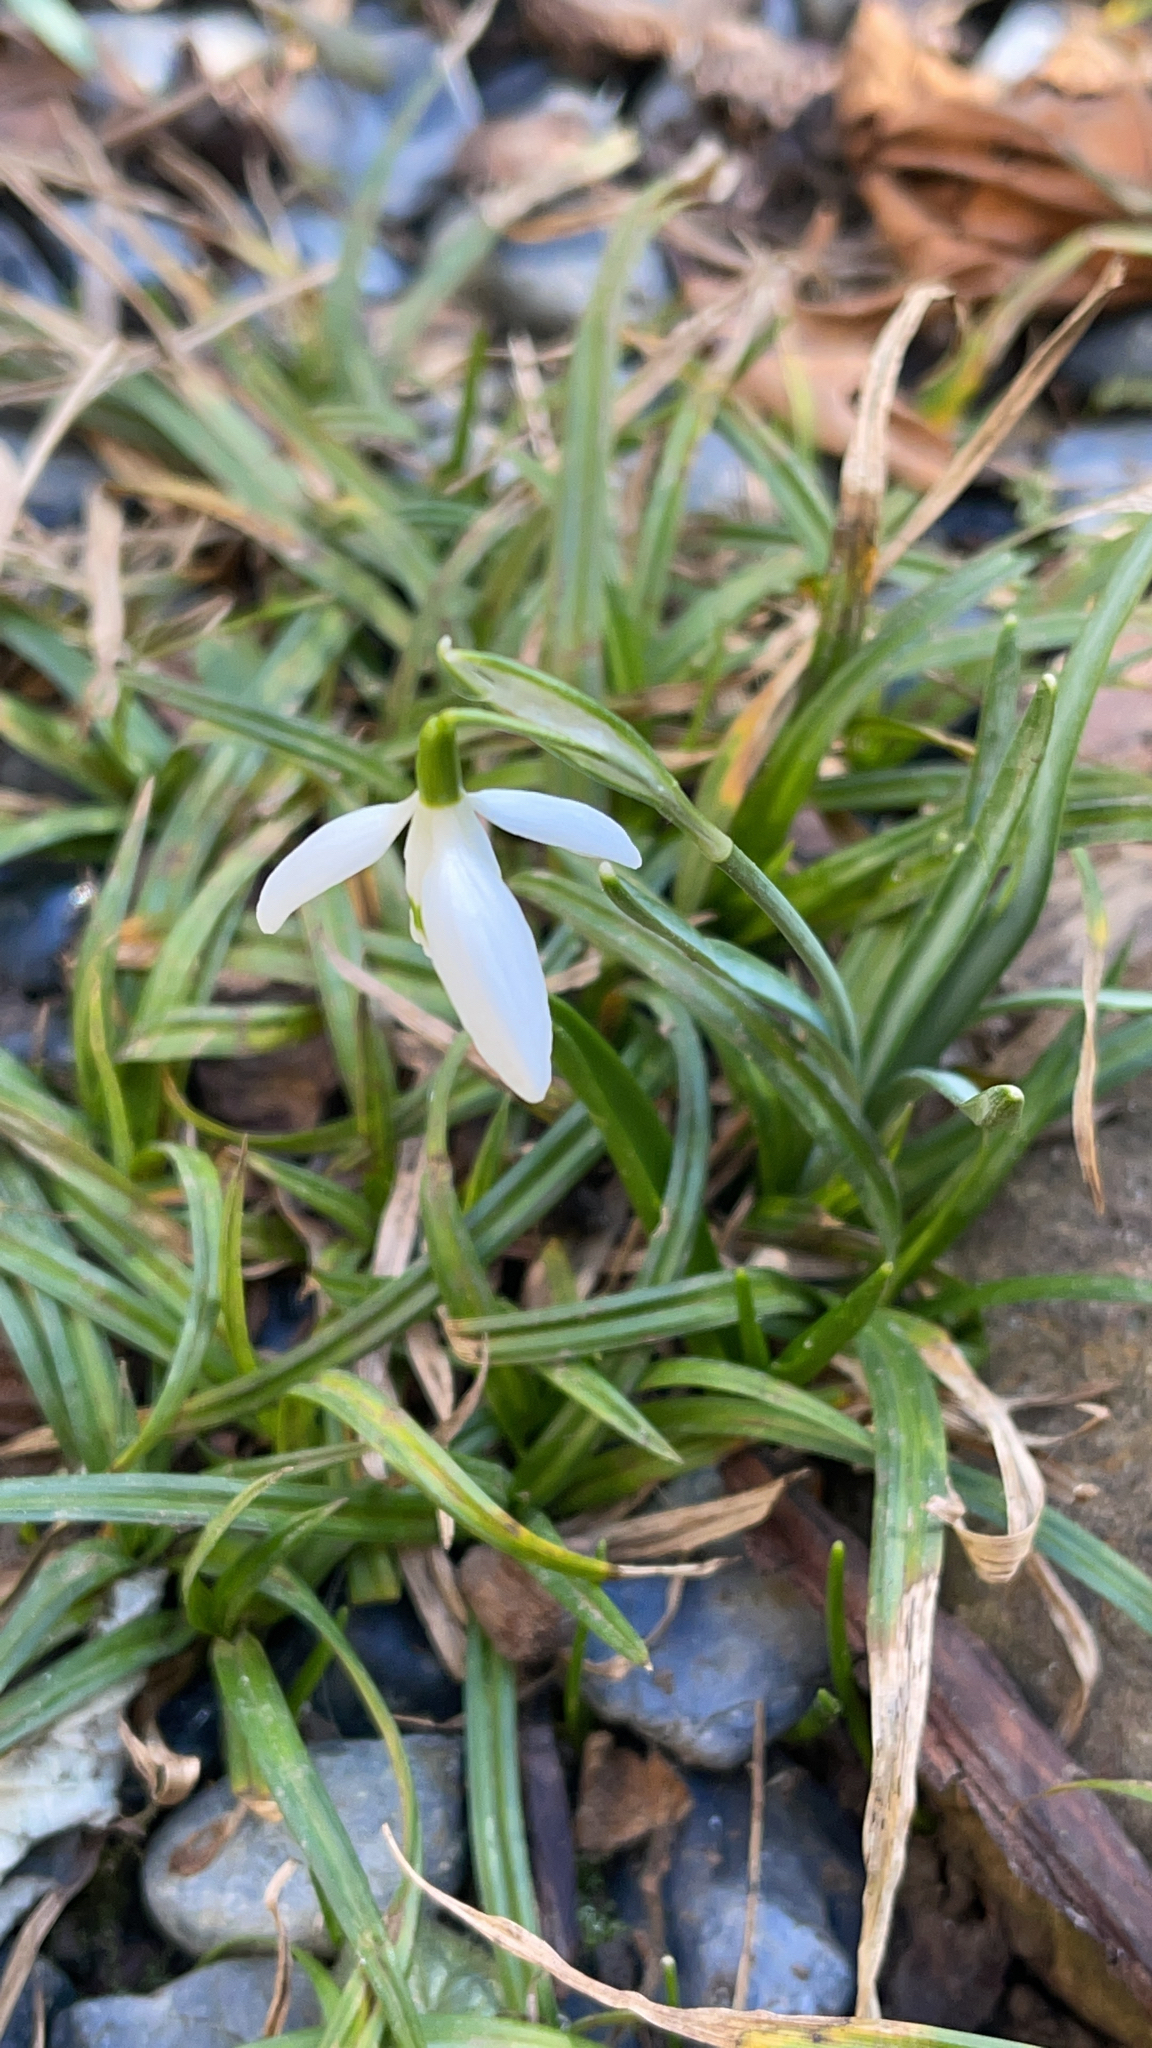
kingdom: Plantae
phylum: Tracheophyta
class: Liliopsida
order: Asparagales
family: Amaryllidaceae
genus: Galanthus
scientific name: Galanthus nivalis
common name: Snowdrop
